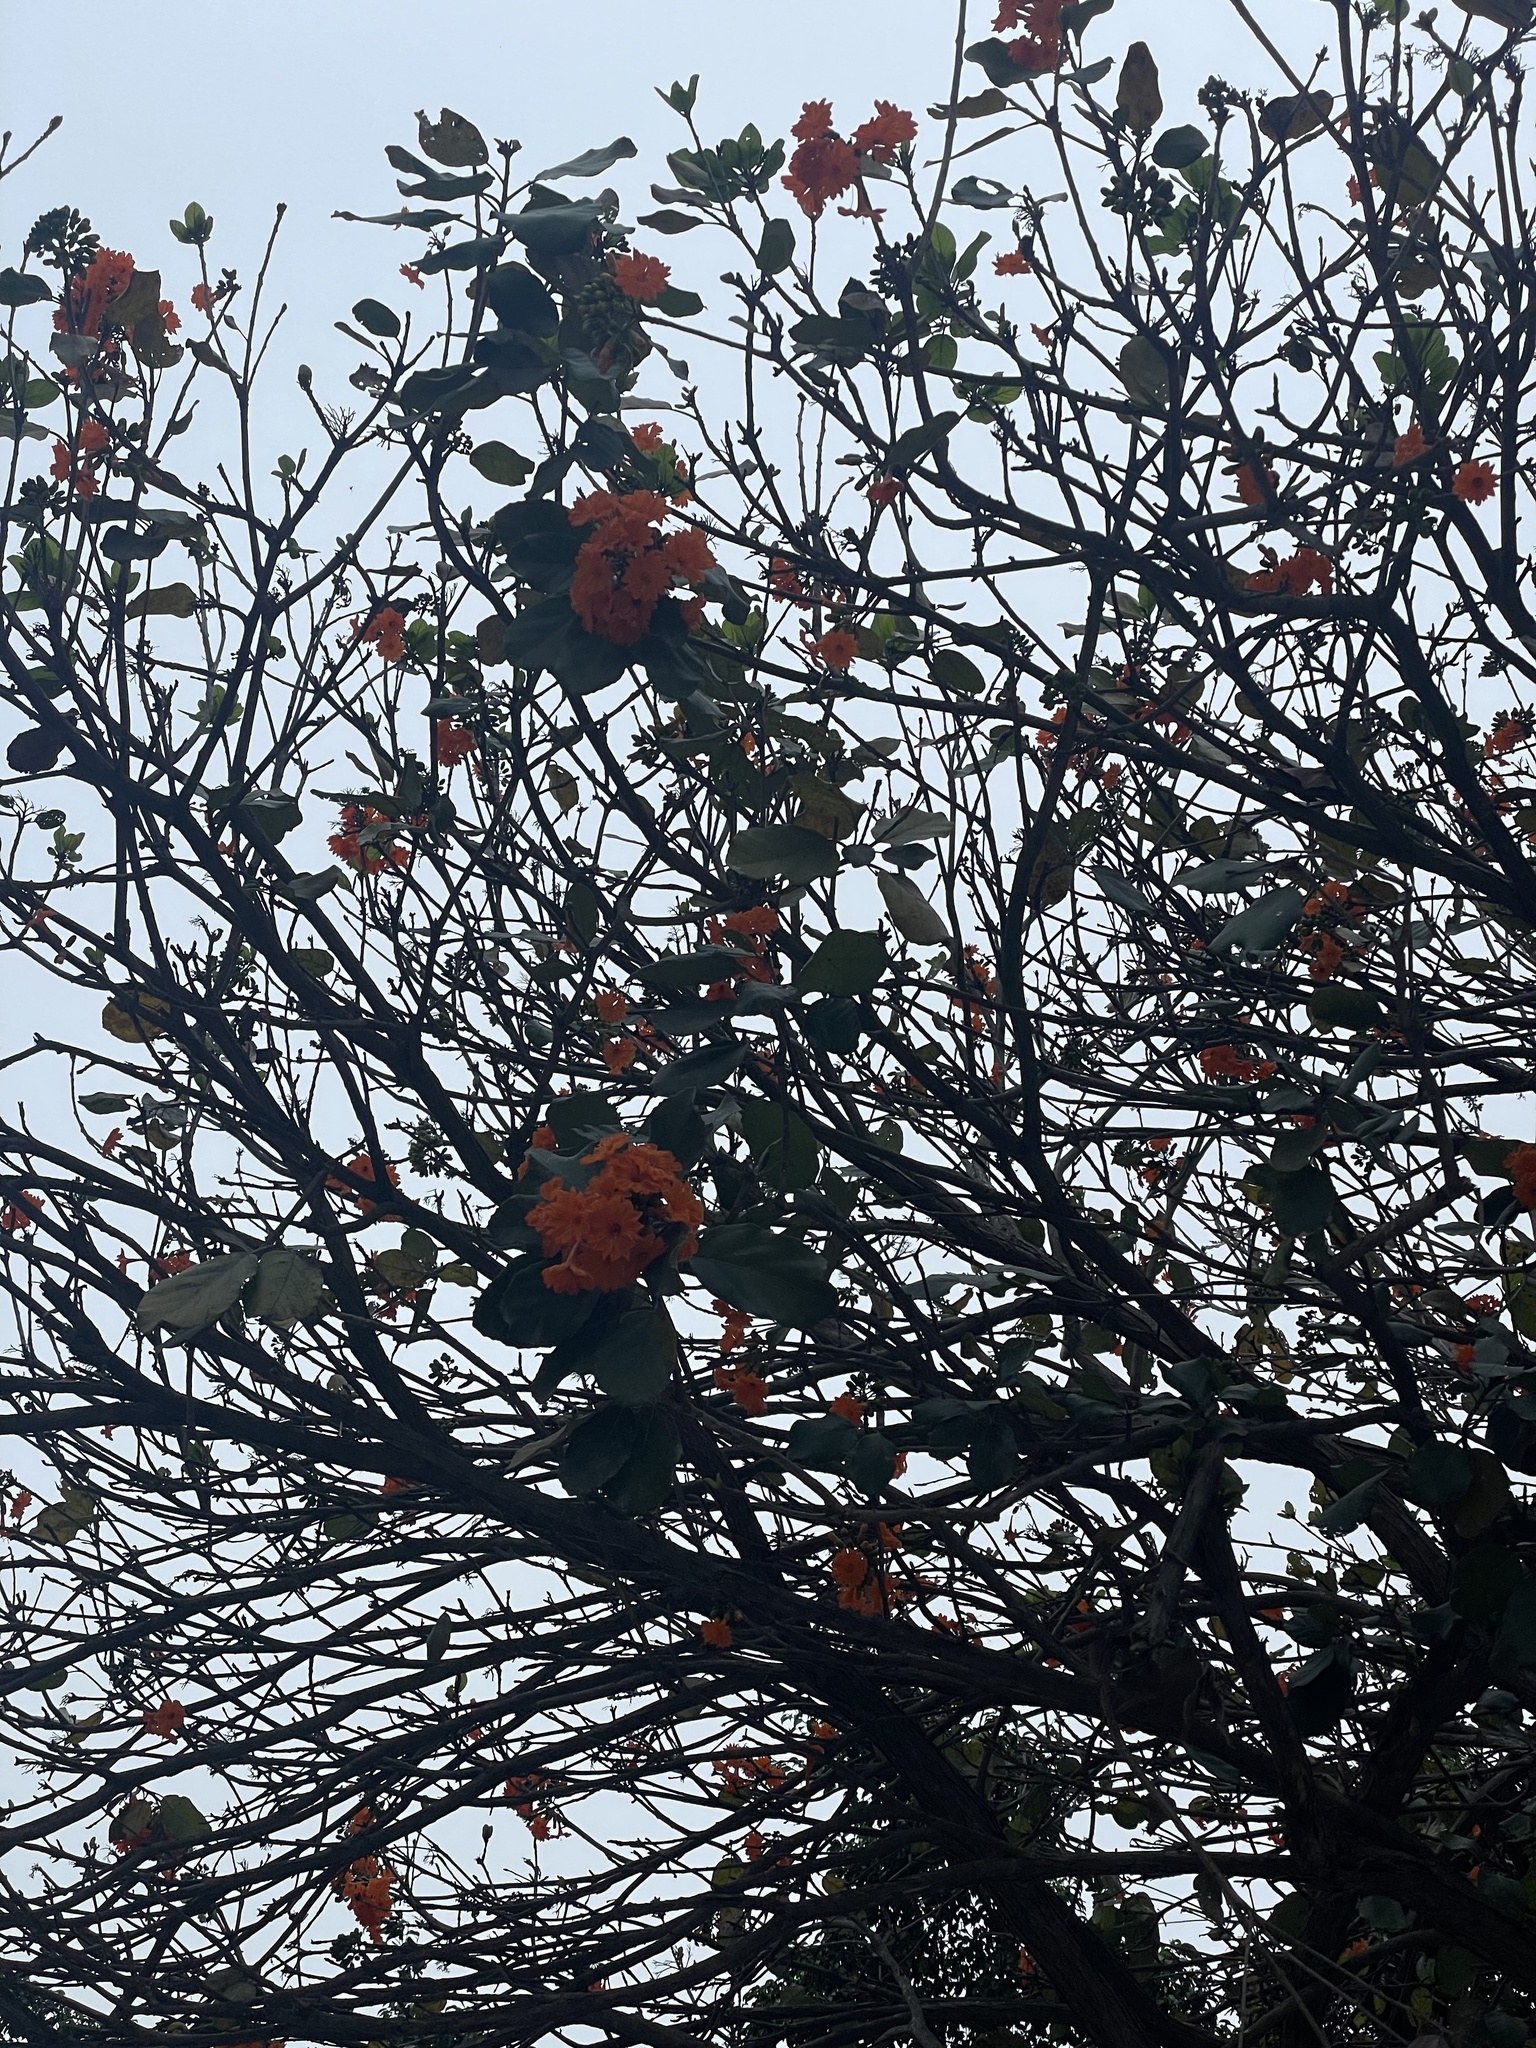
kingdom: Plantae
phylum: Tracheophyta
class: Magnoliopsida
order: Boraginales
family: Cordiaceae
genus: Cordia
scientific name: Cordia dodecandra
